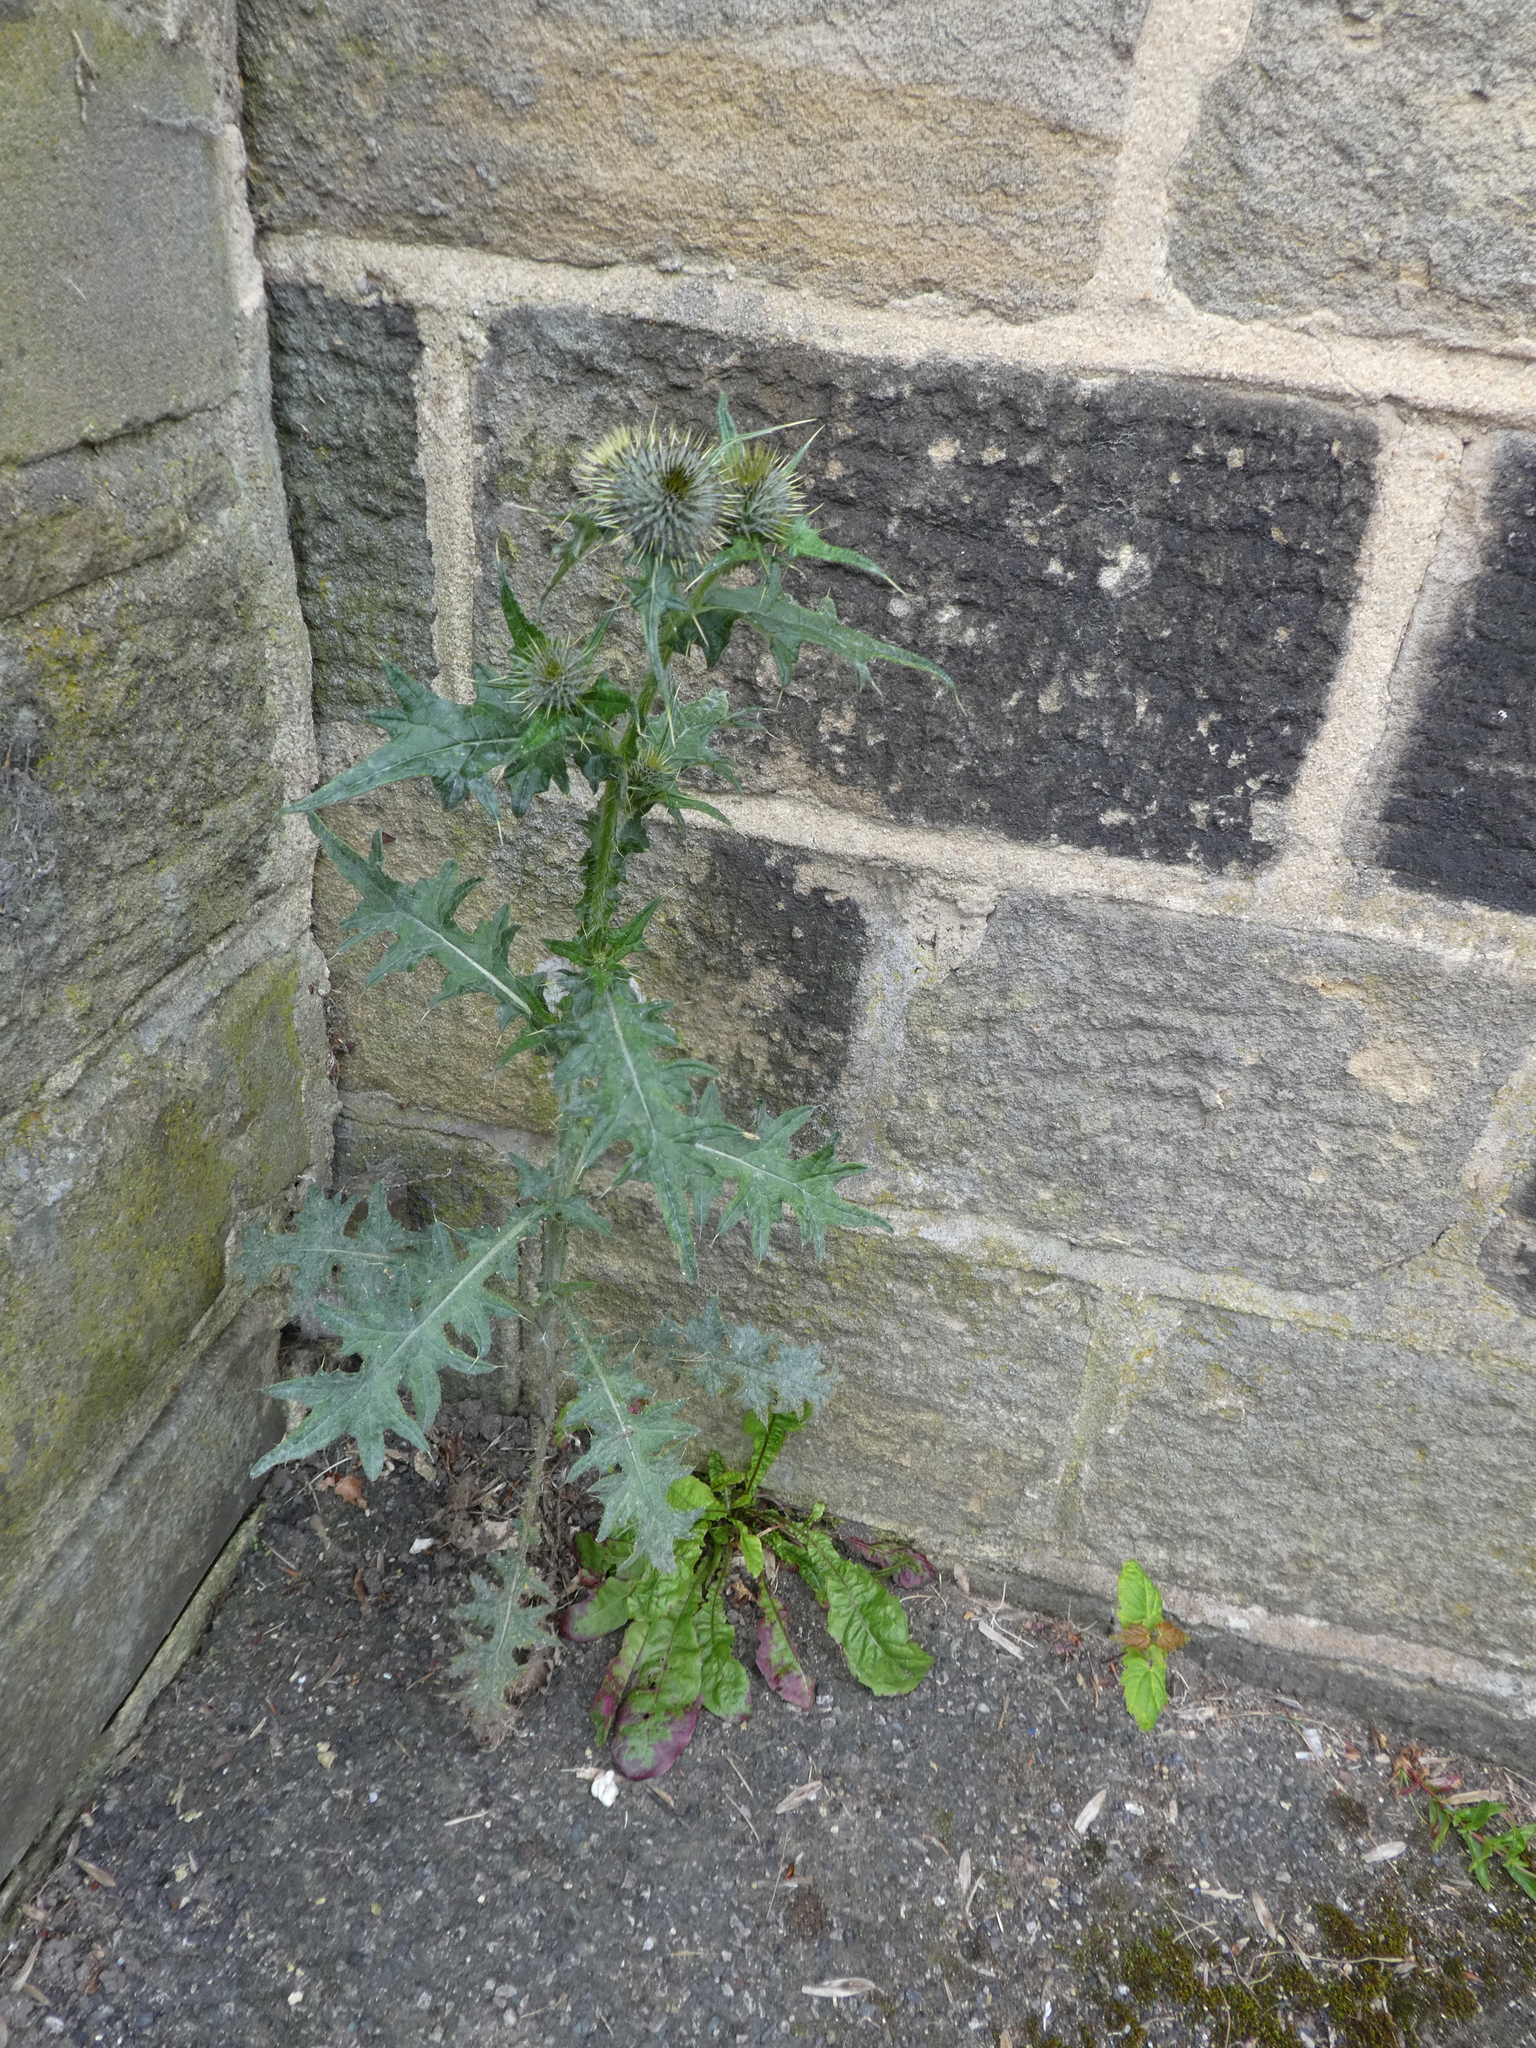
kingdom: Plantae
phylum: Tracheophyta
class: Magnoliopsida
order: Asterales
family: Asteraceae
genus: Cirsium
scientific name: Cirsium vulgare
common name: Bull thistle
